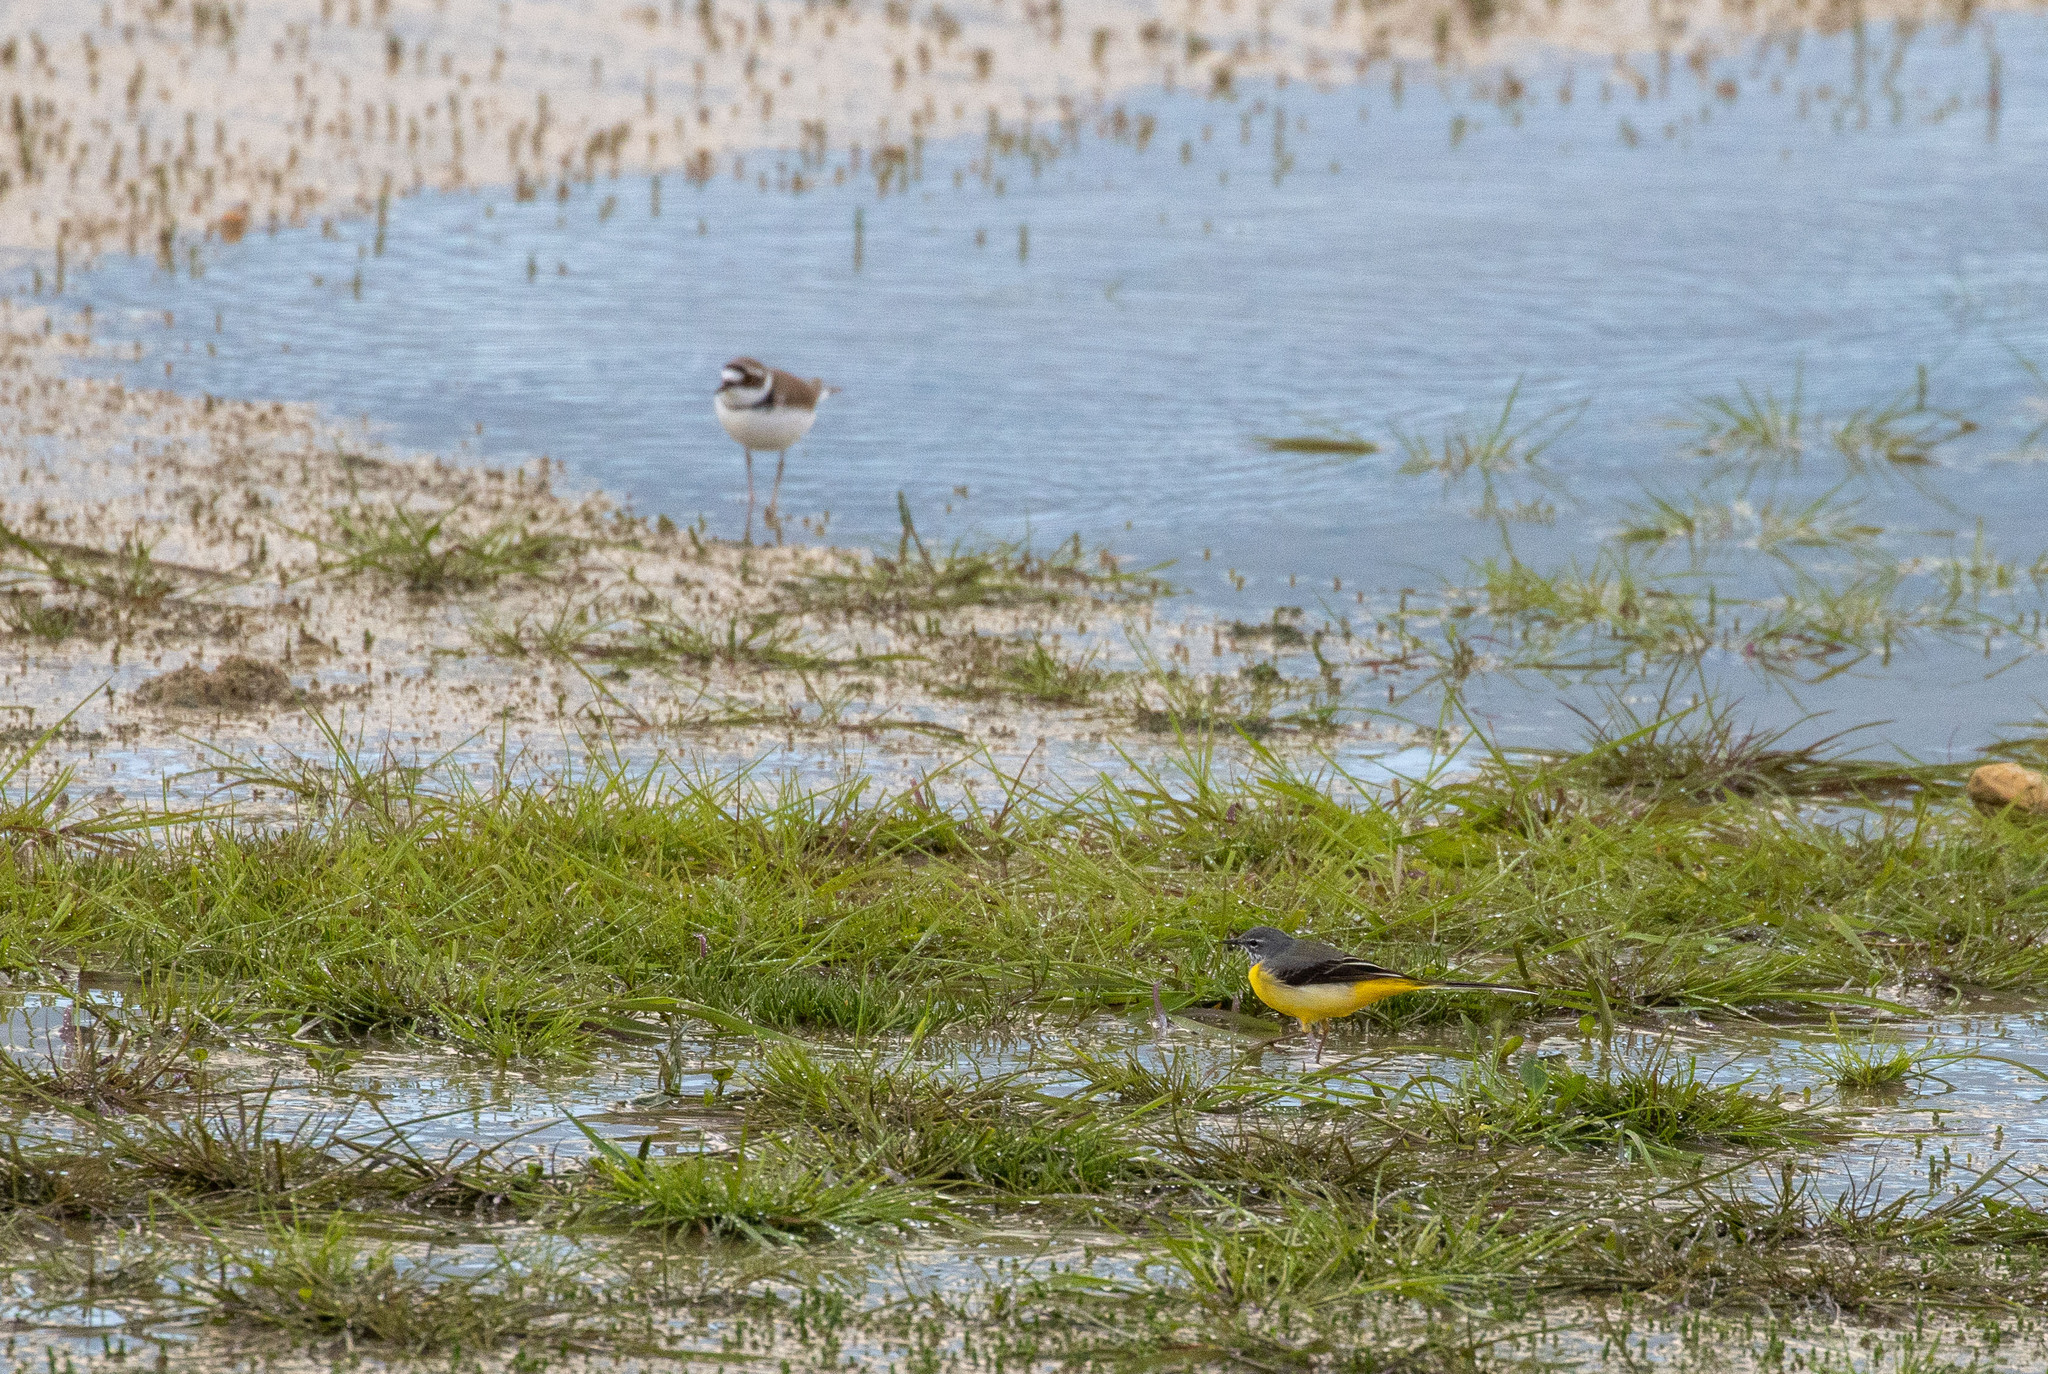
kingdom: Animalia
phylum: Chordata
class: Aves
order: Passeriformes
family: Motacillidae
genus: Motacilla
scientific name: Motacilla cinerea
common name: Grey wagtail
